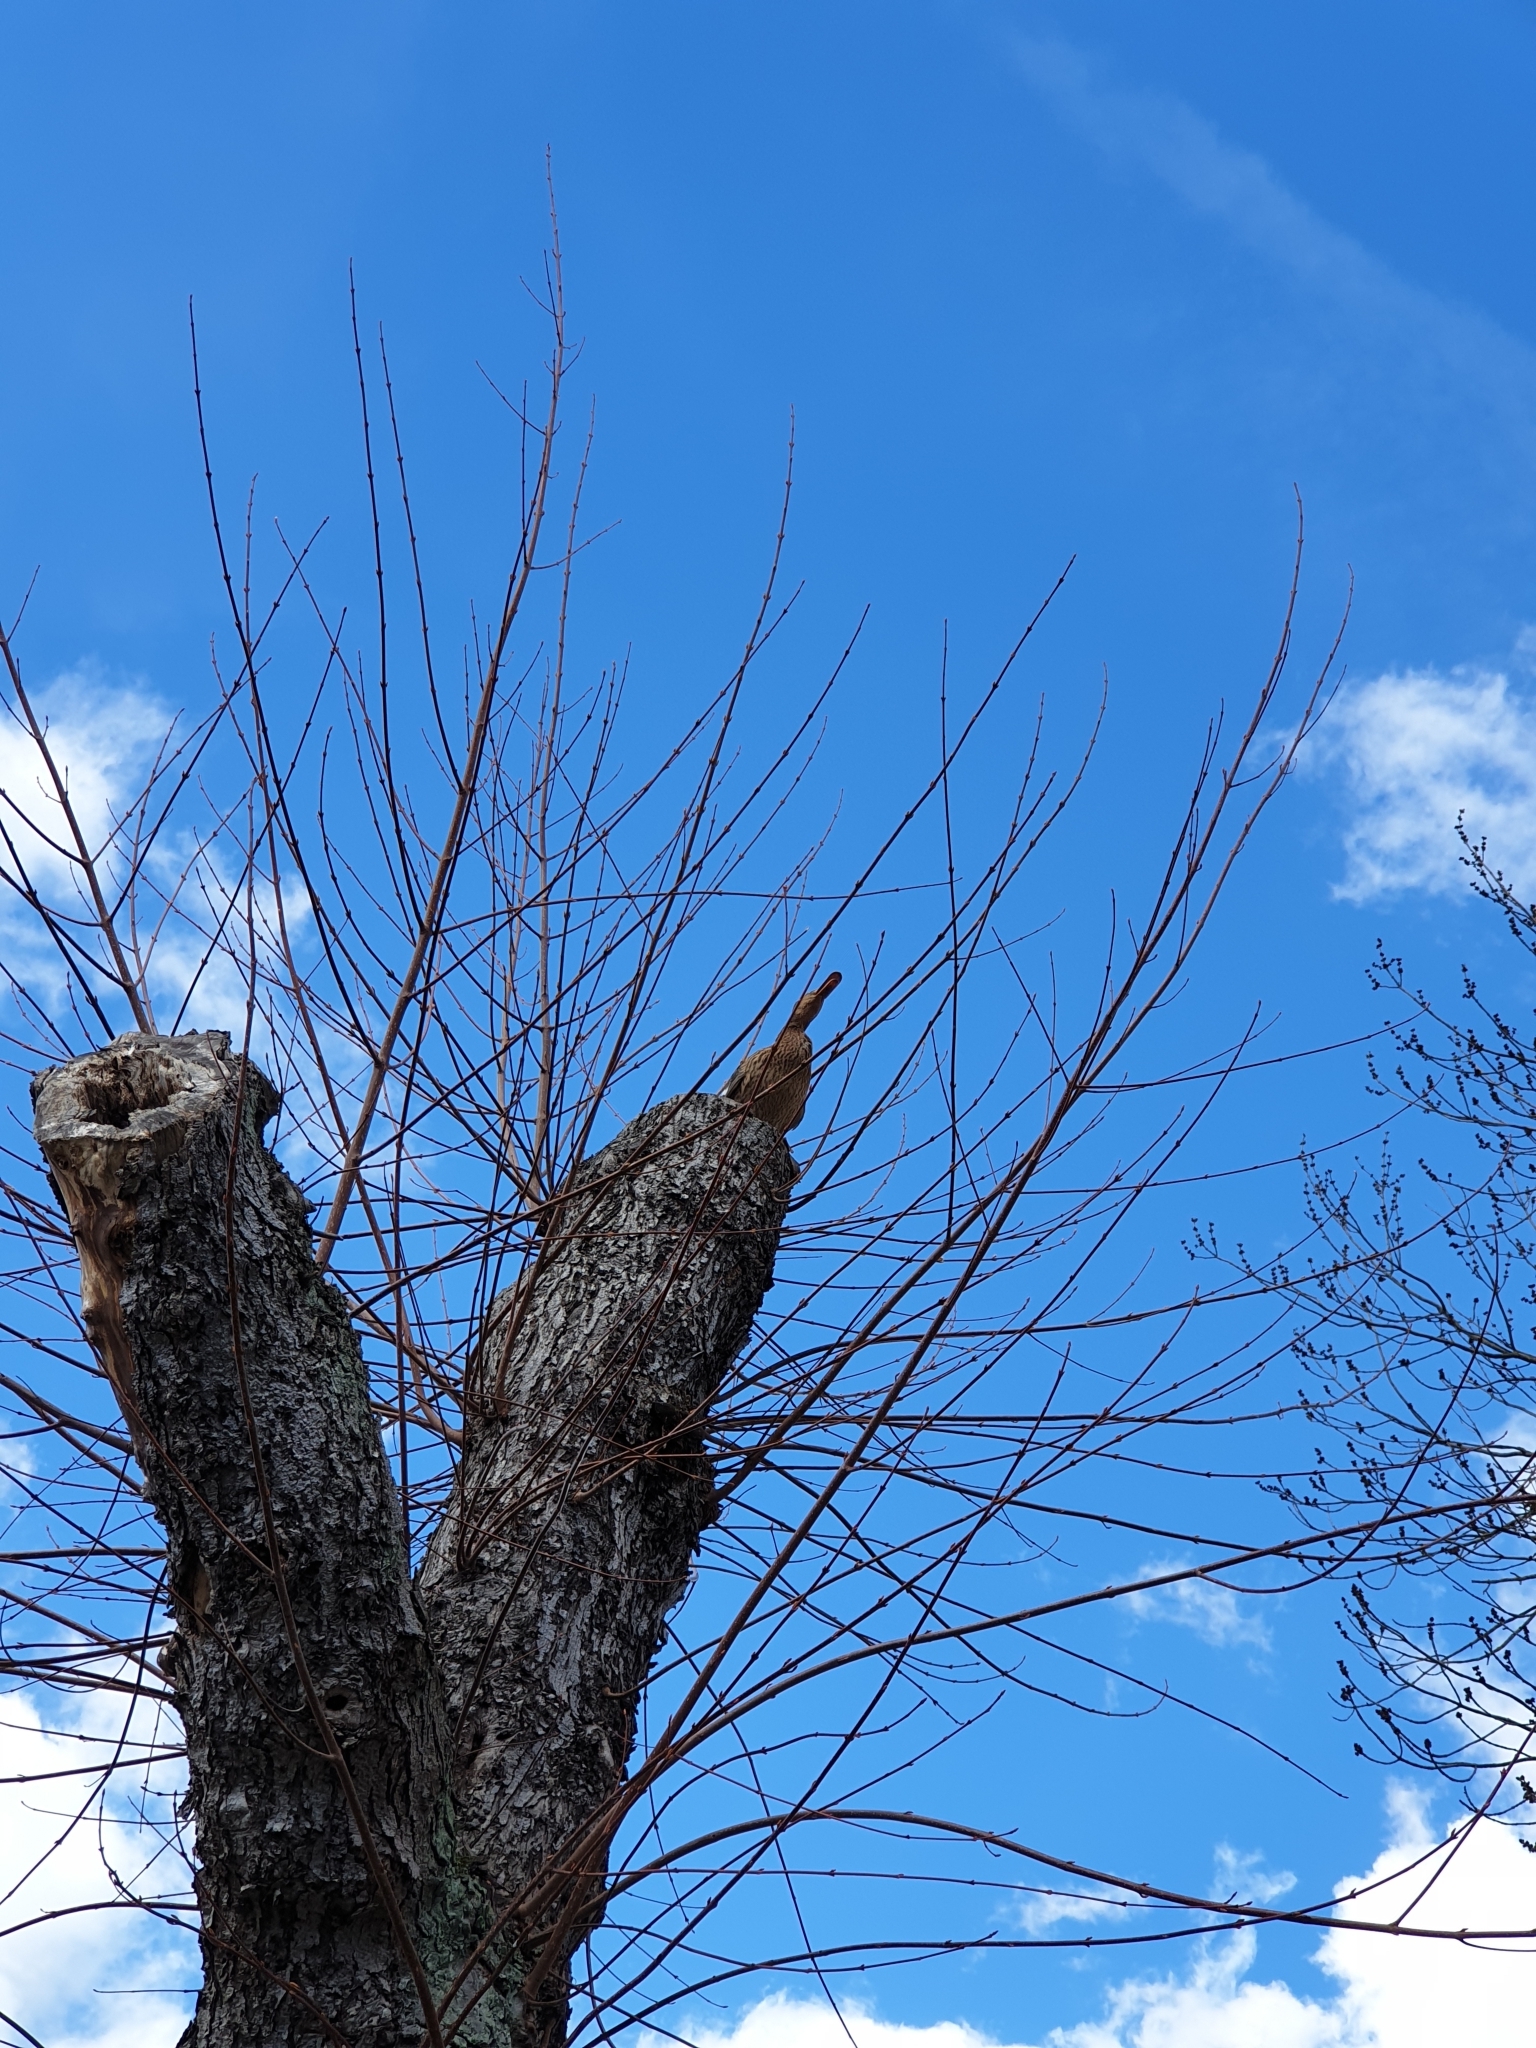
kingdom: Animalia
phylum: Chordata
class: Aves
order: Anseriformes
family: Anatidae
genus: Anas
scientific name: Anas platyrhynchos
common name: Mallard
